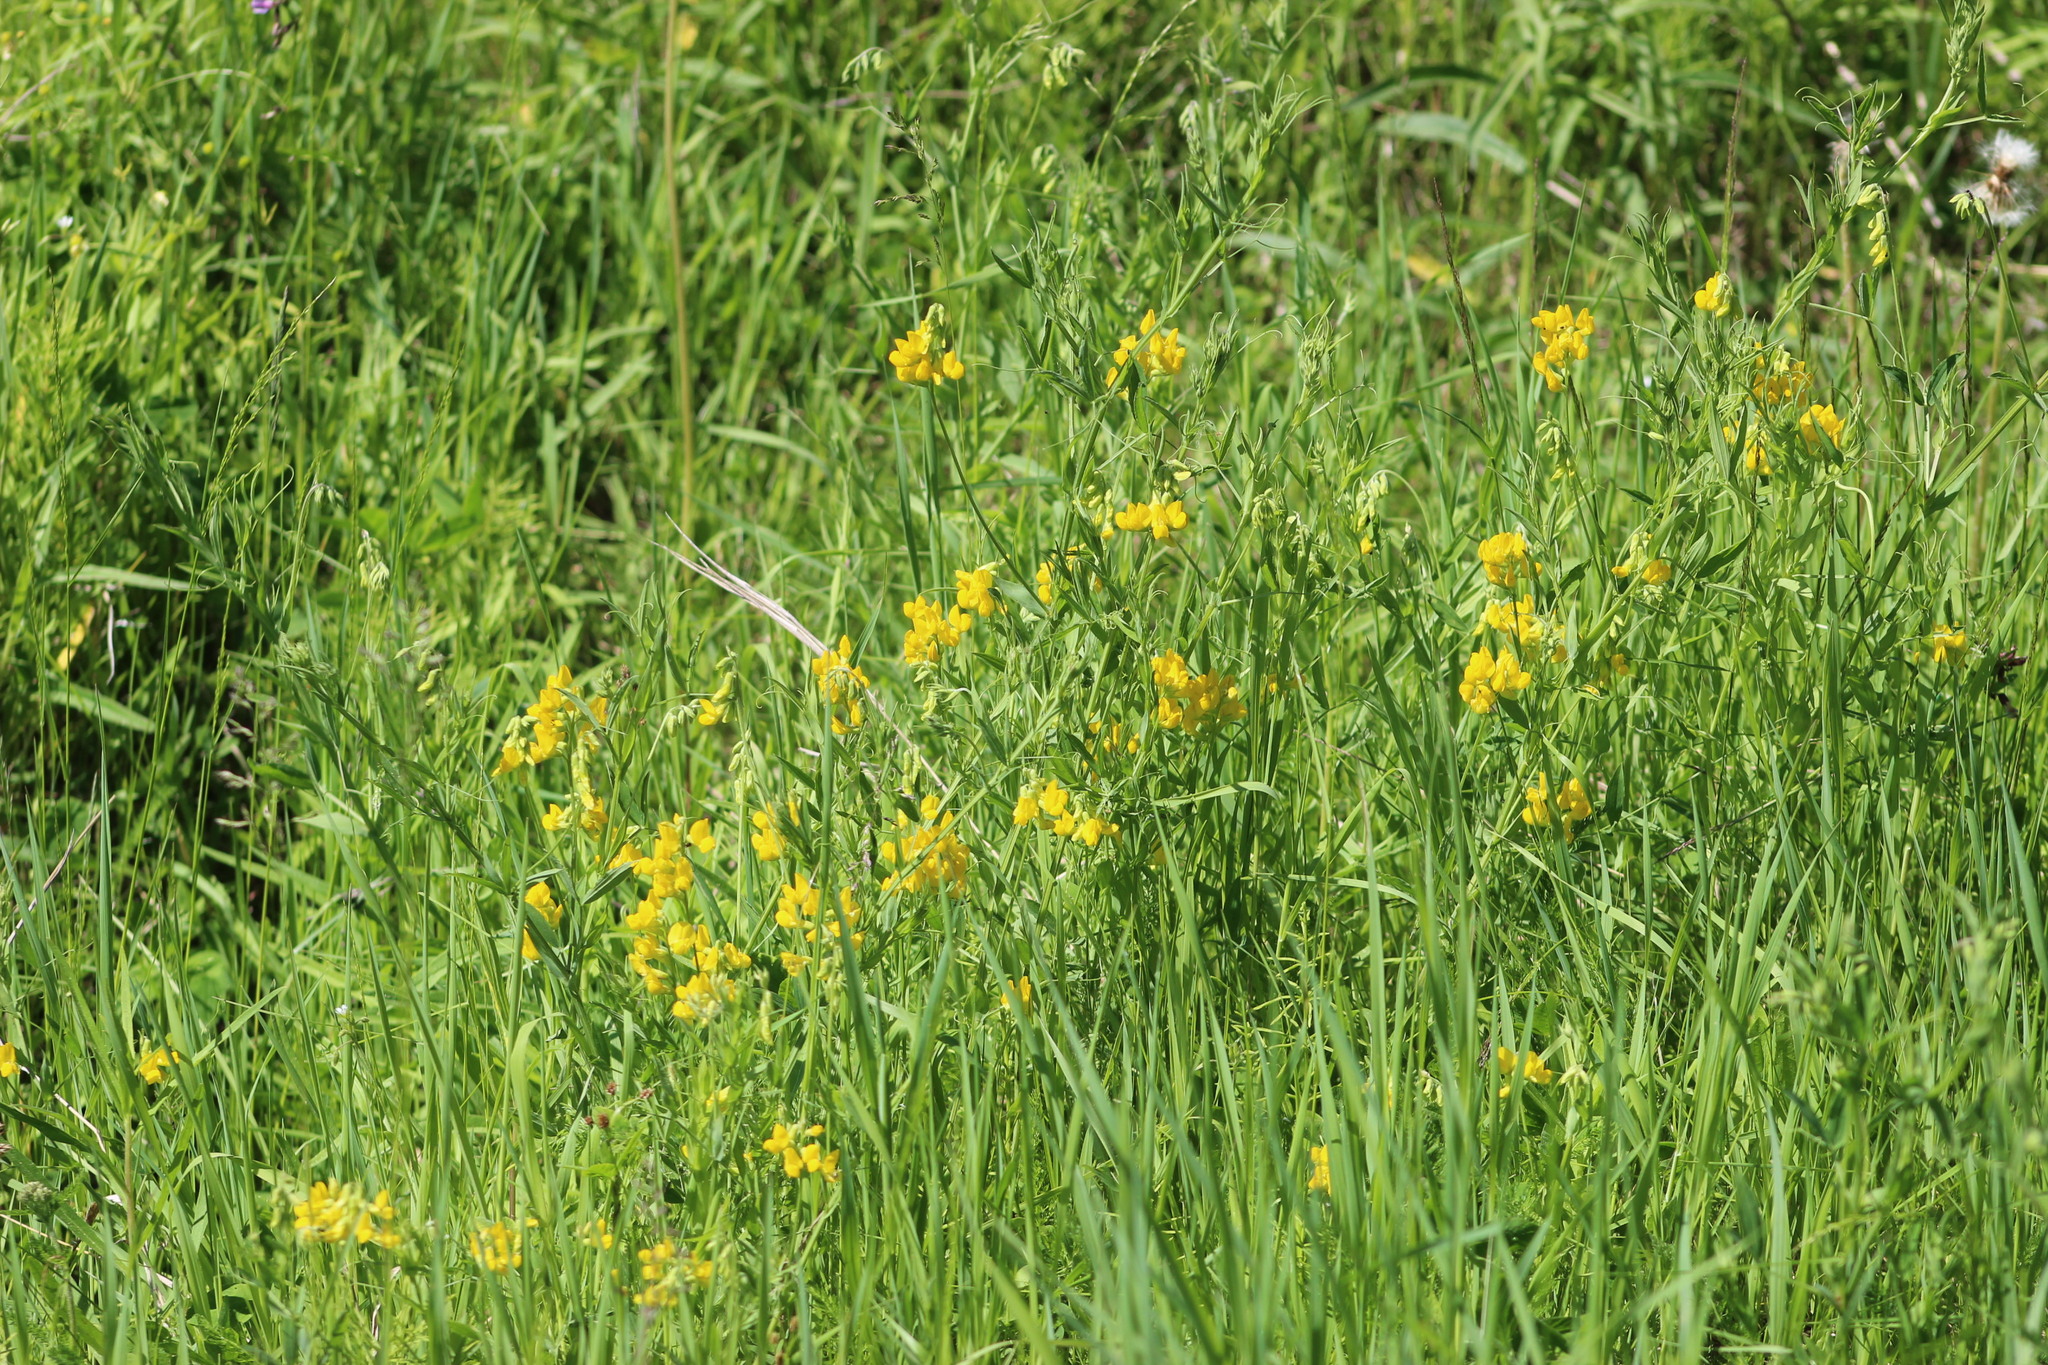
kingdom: Plantae
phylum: Tracheophyta
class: Magnoliopsida
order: Fabales
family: Fabaceae
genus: Lathyrus
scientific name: Lathyrus pratensis
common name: Meadow vetchling
